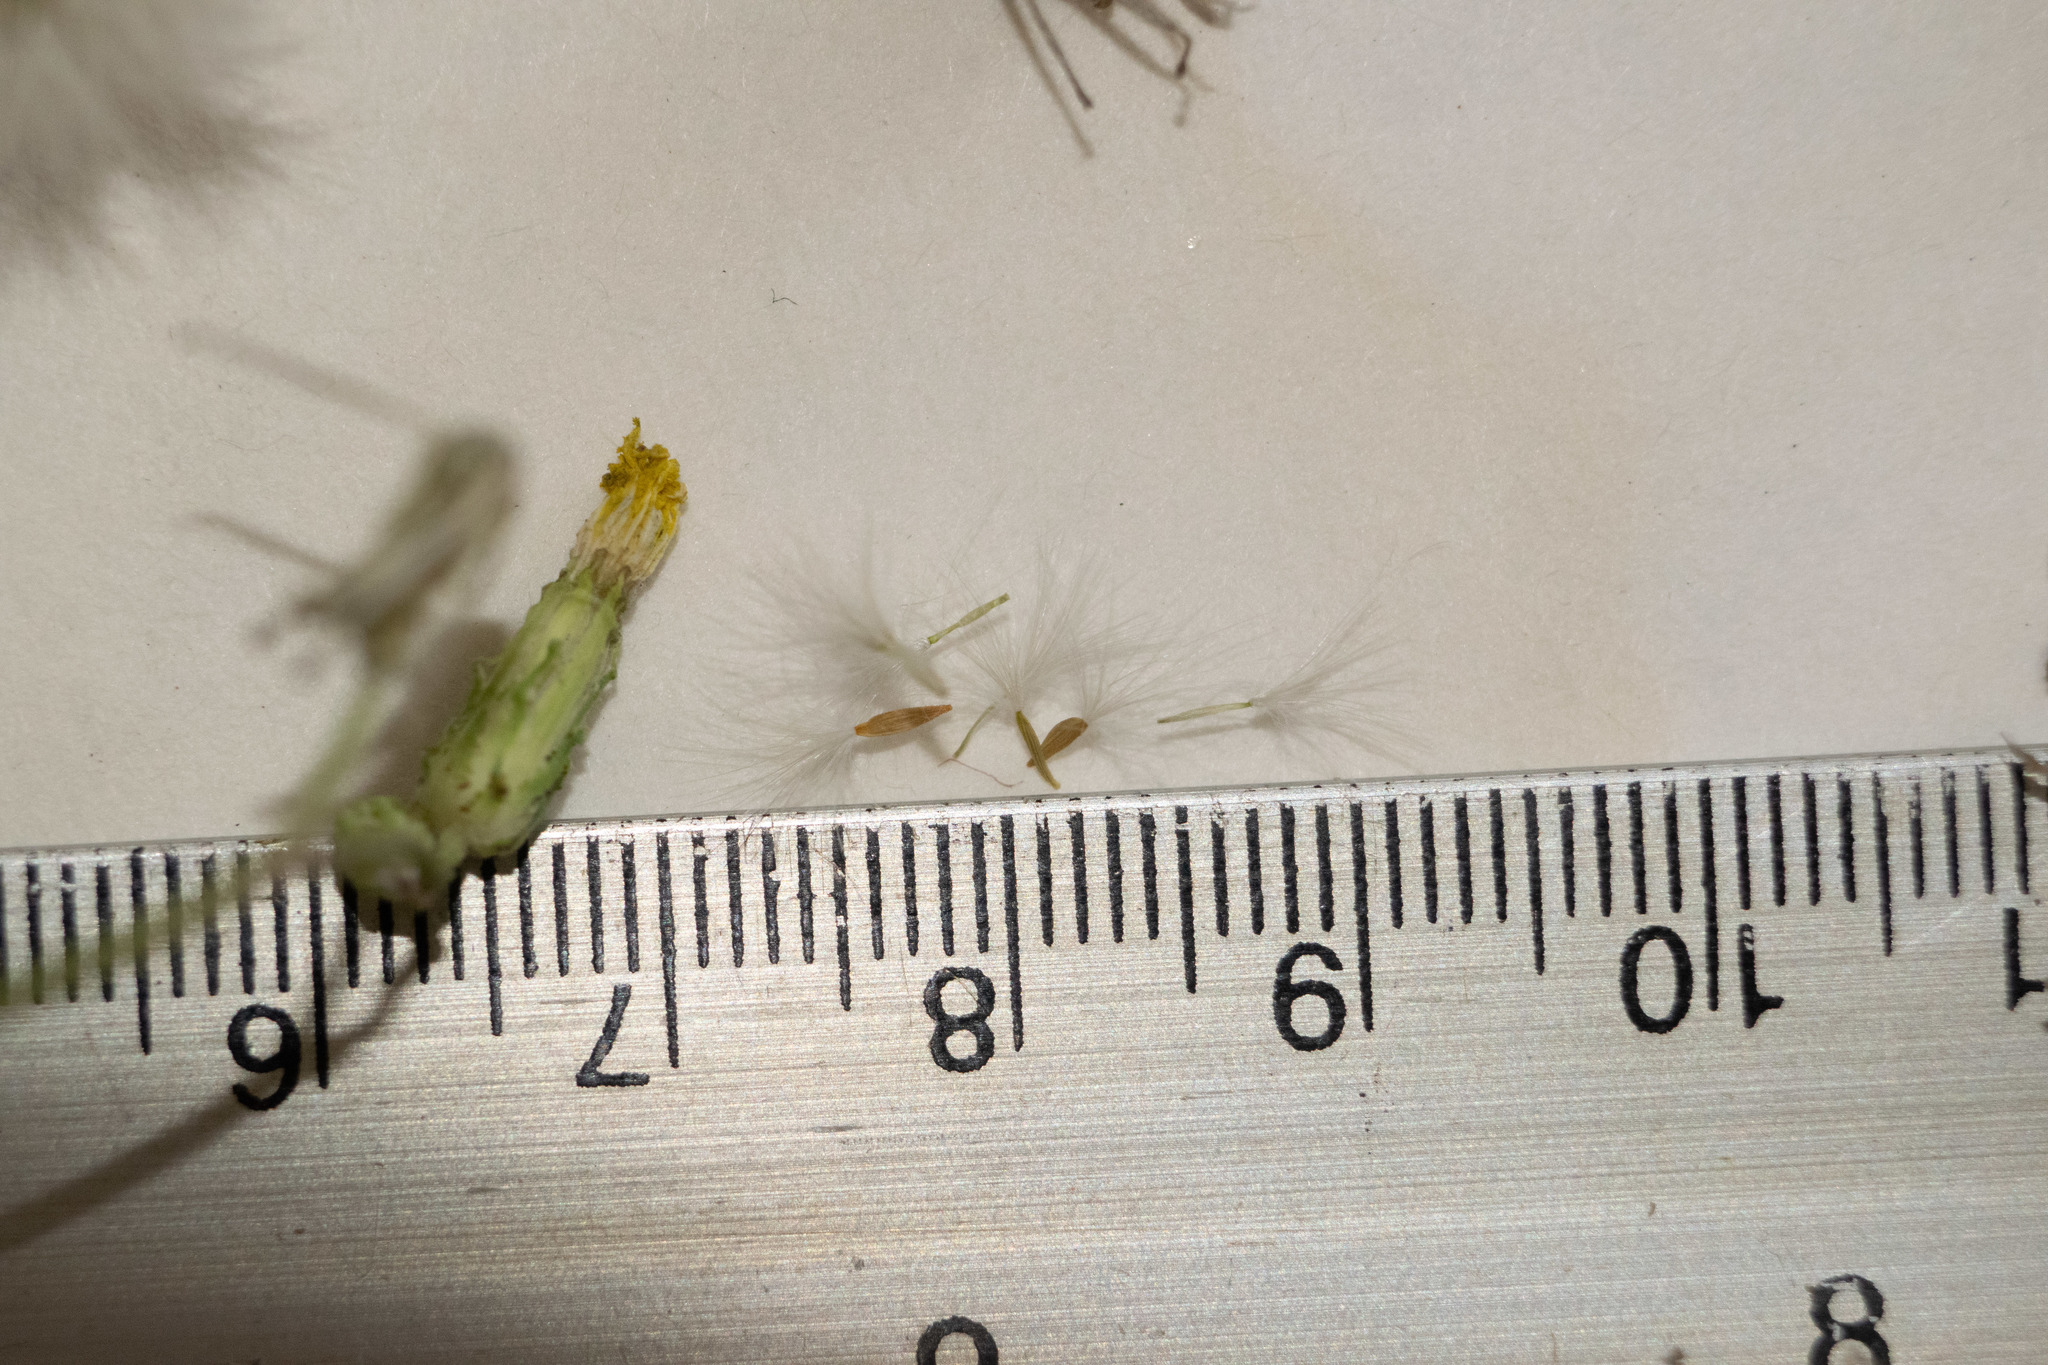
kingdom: Plantae
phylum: Tracheophyta
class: Magnoliopsida
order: Asterales
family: Asteraceae
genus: Sonchus
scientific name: Sonchus oleraceus
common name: Common sowthistle
